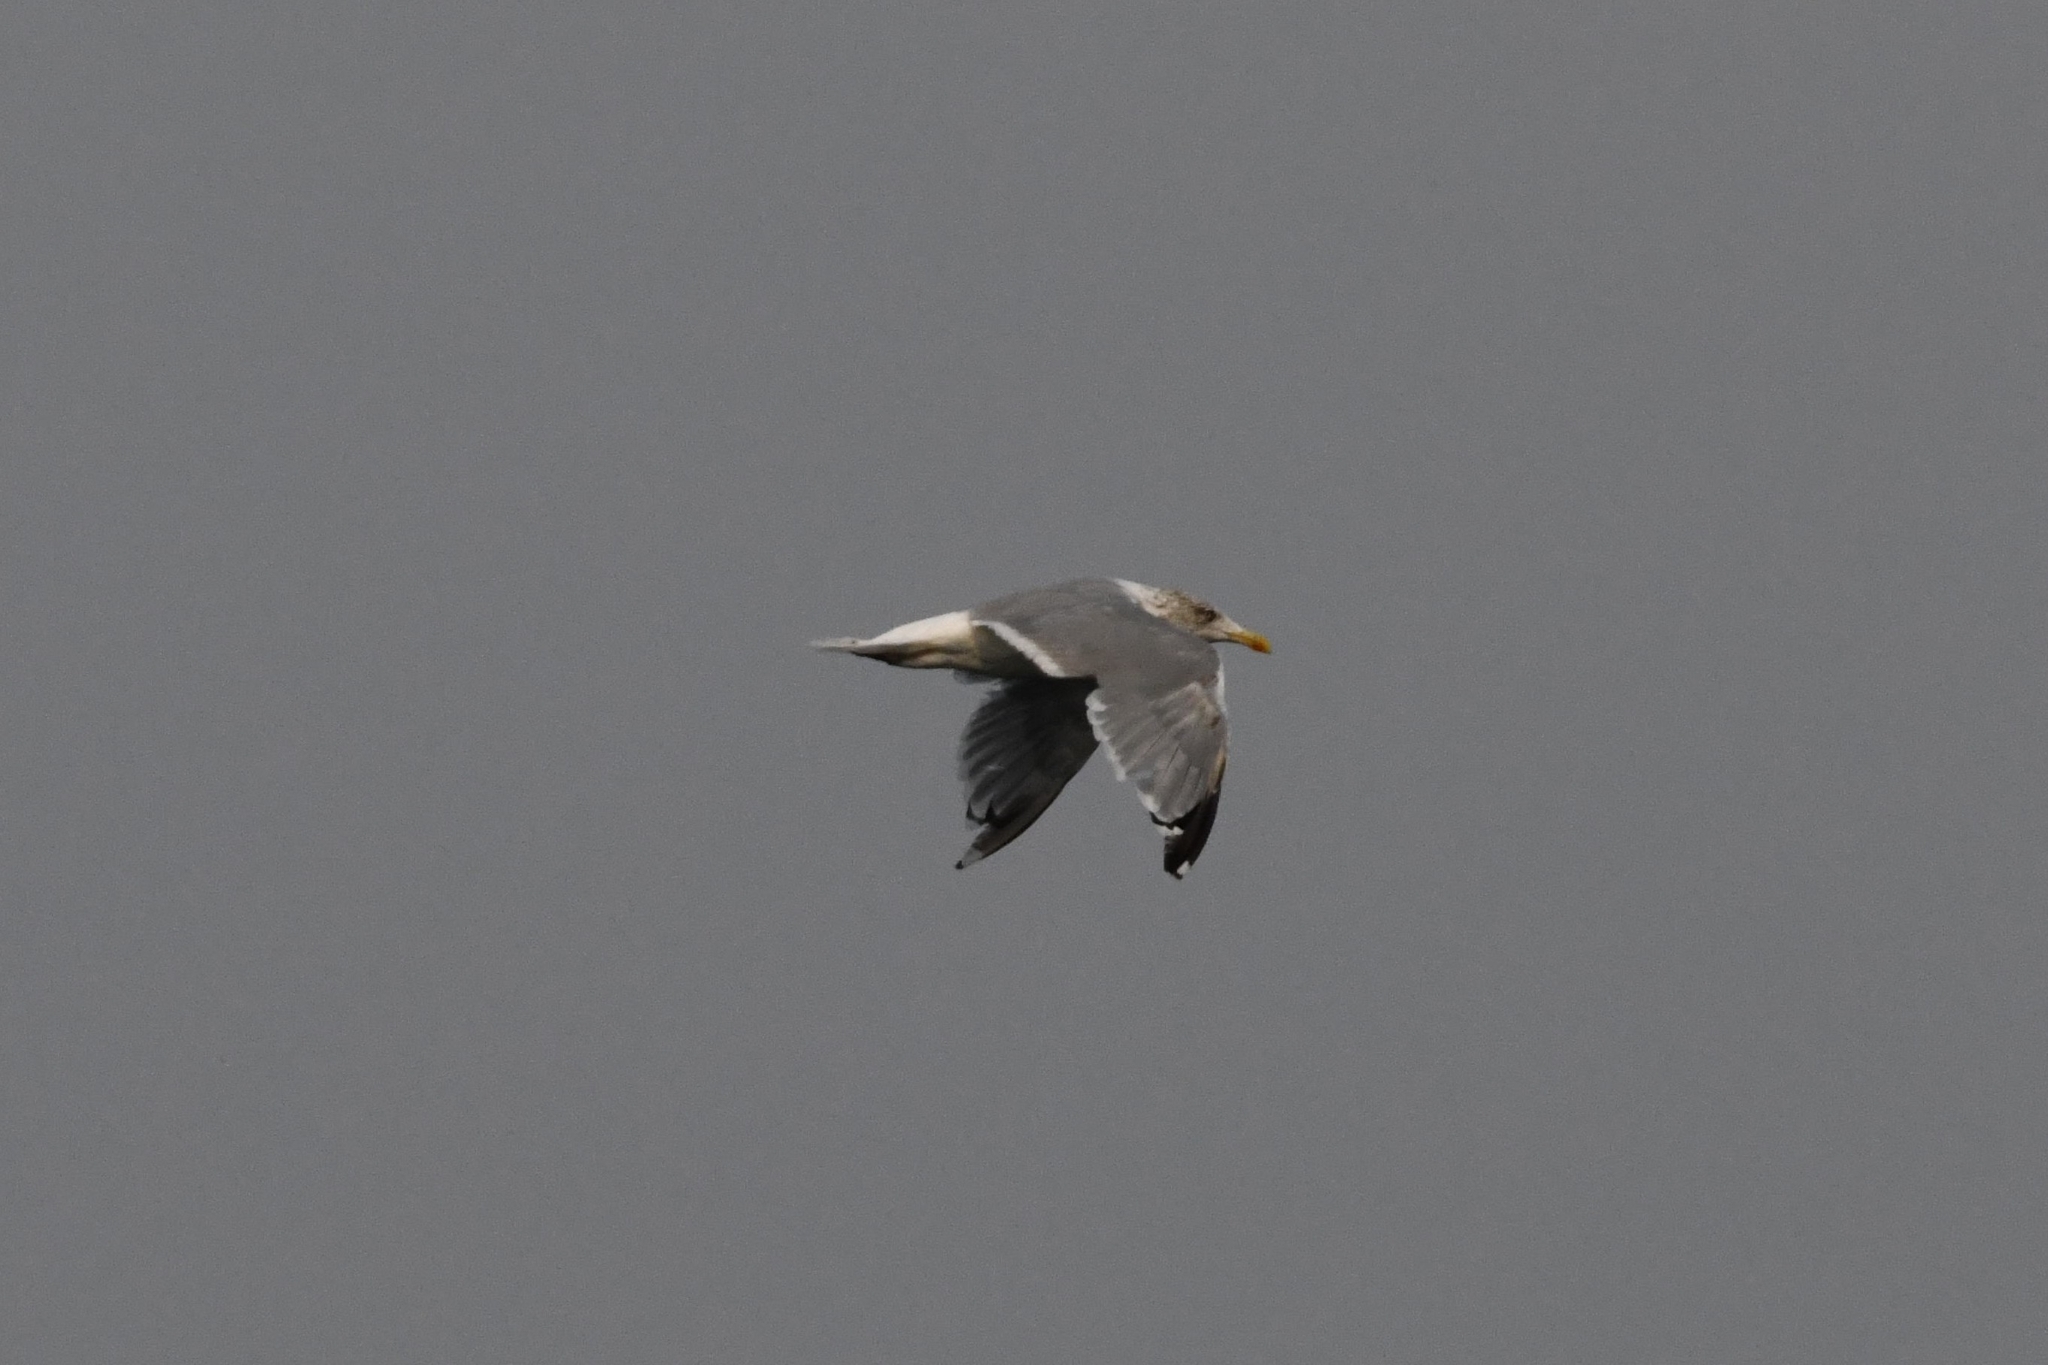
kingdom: Animalia
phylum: Chordata
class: Aves
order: Charadriiformes
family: Laridae
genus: Larus
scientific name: Larus argentatus
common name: Herring gull
